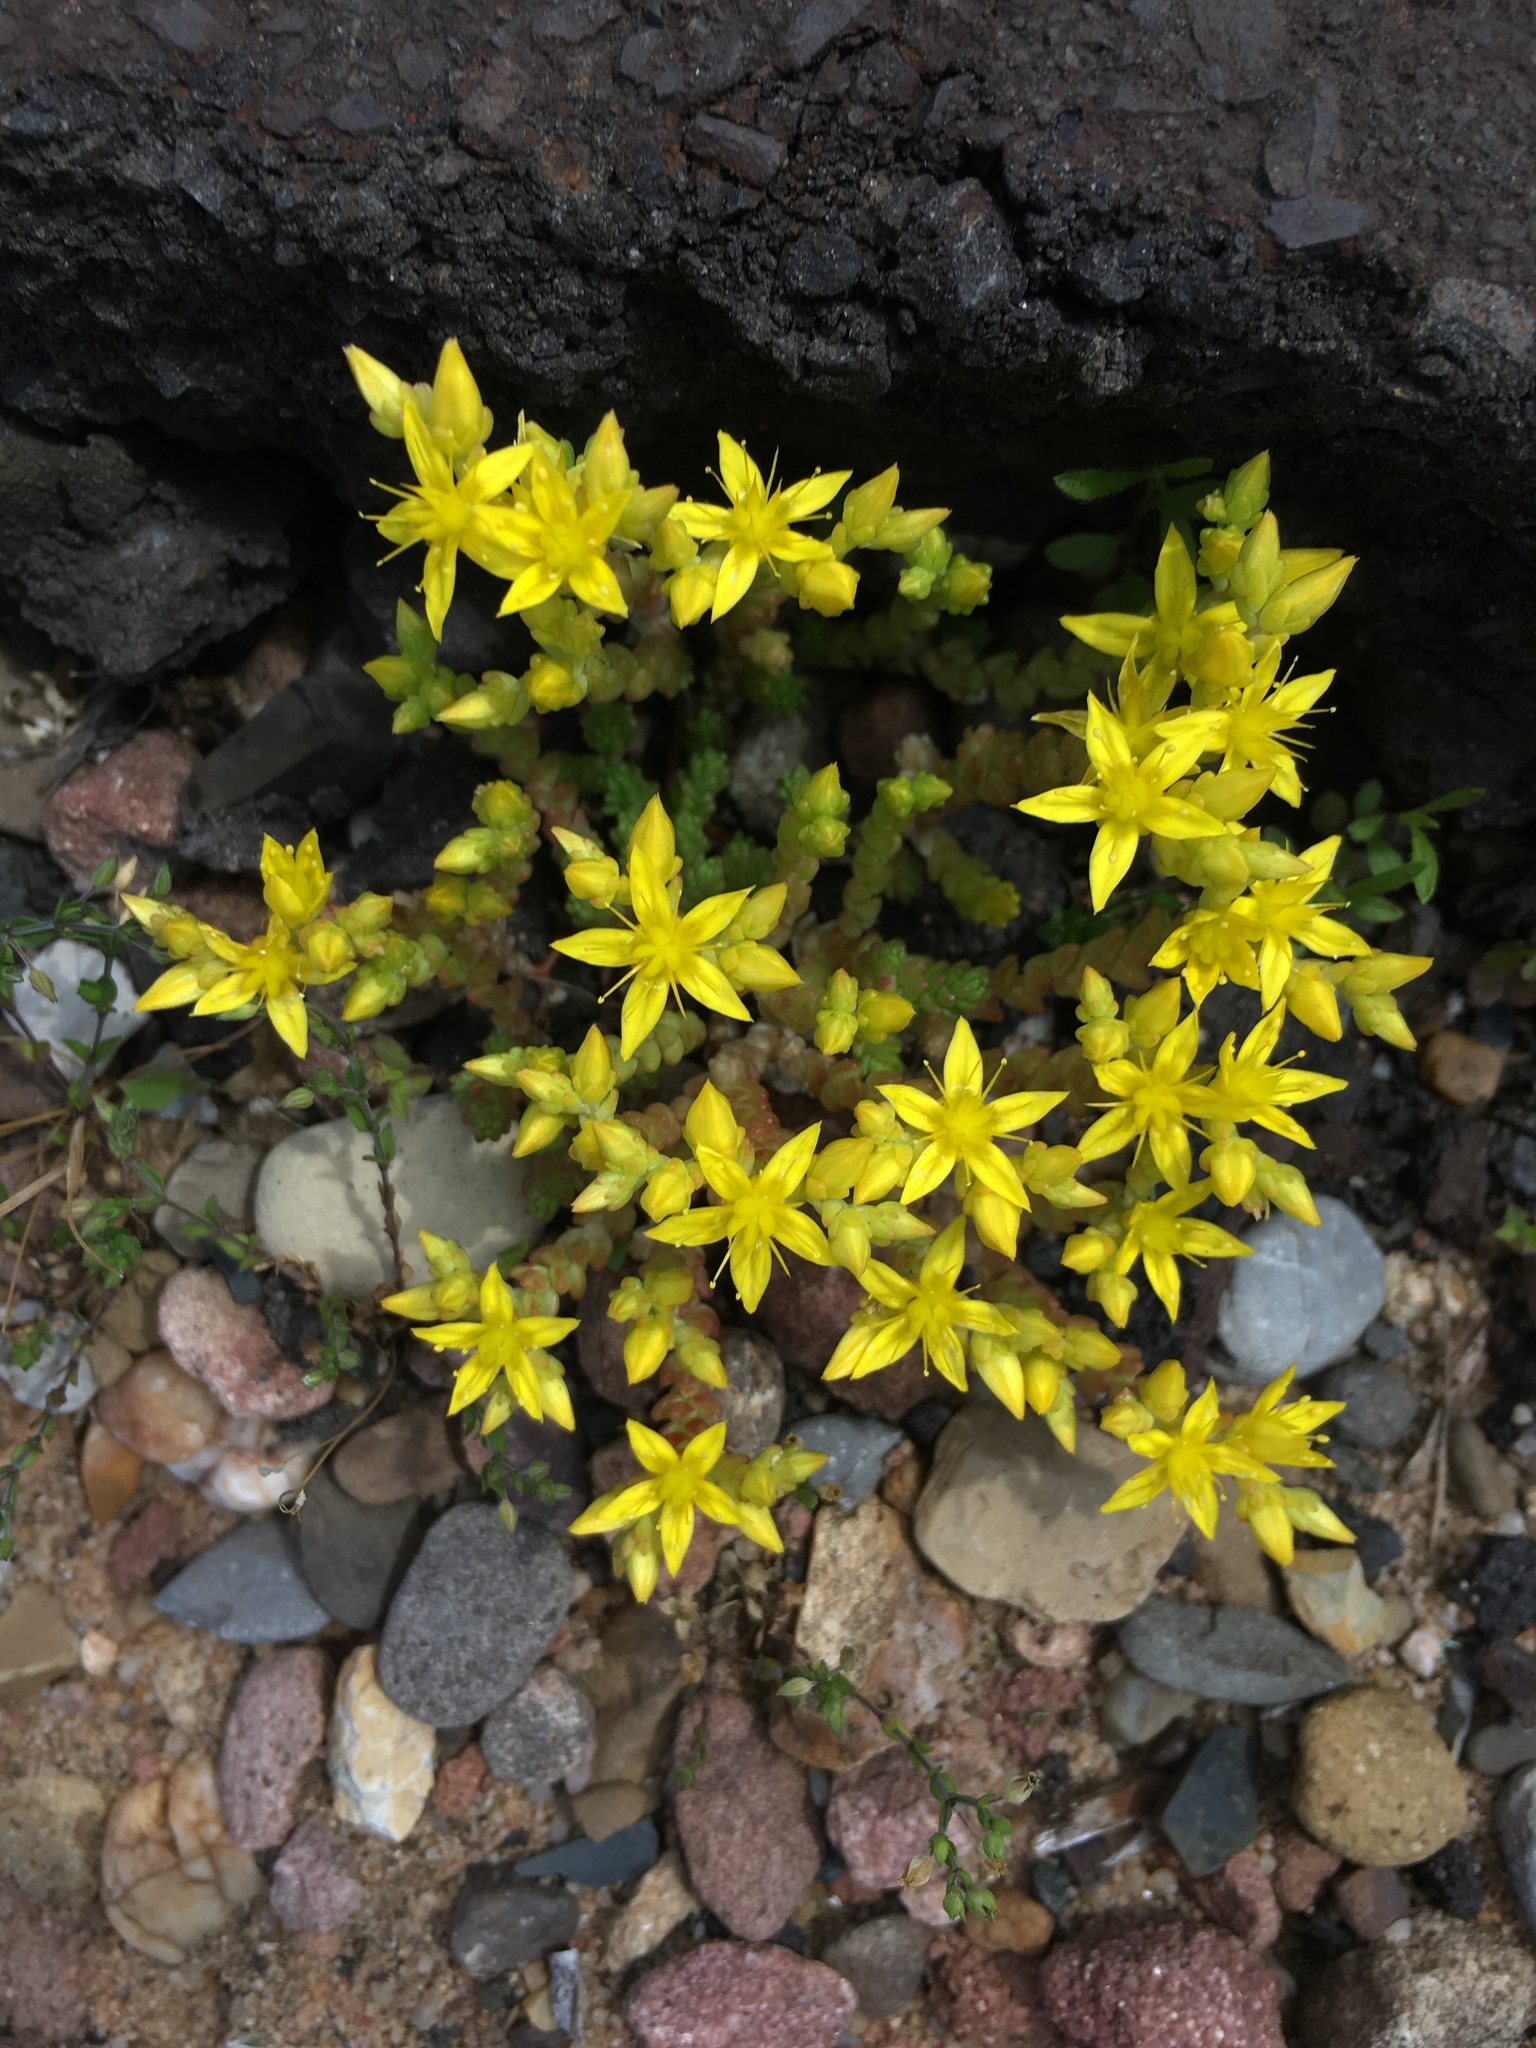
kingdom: Plantae
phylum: Tracheophyta
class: Magnoliopsida
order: Saxifragales
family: Crassulaceae
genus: Sedum
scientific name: Sedum acre
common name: Biting stonecrop
